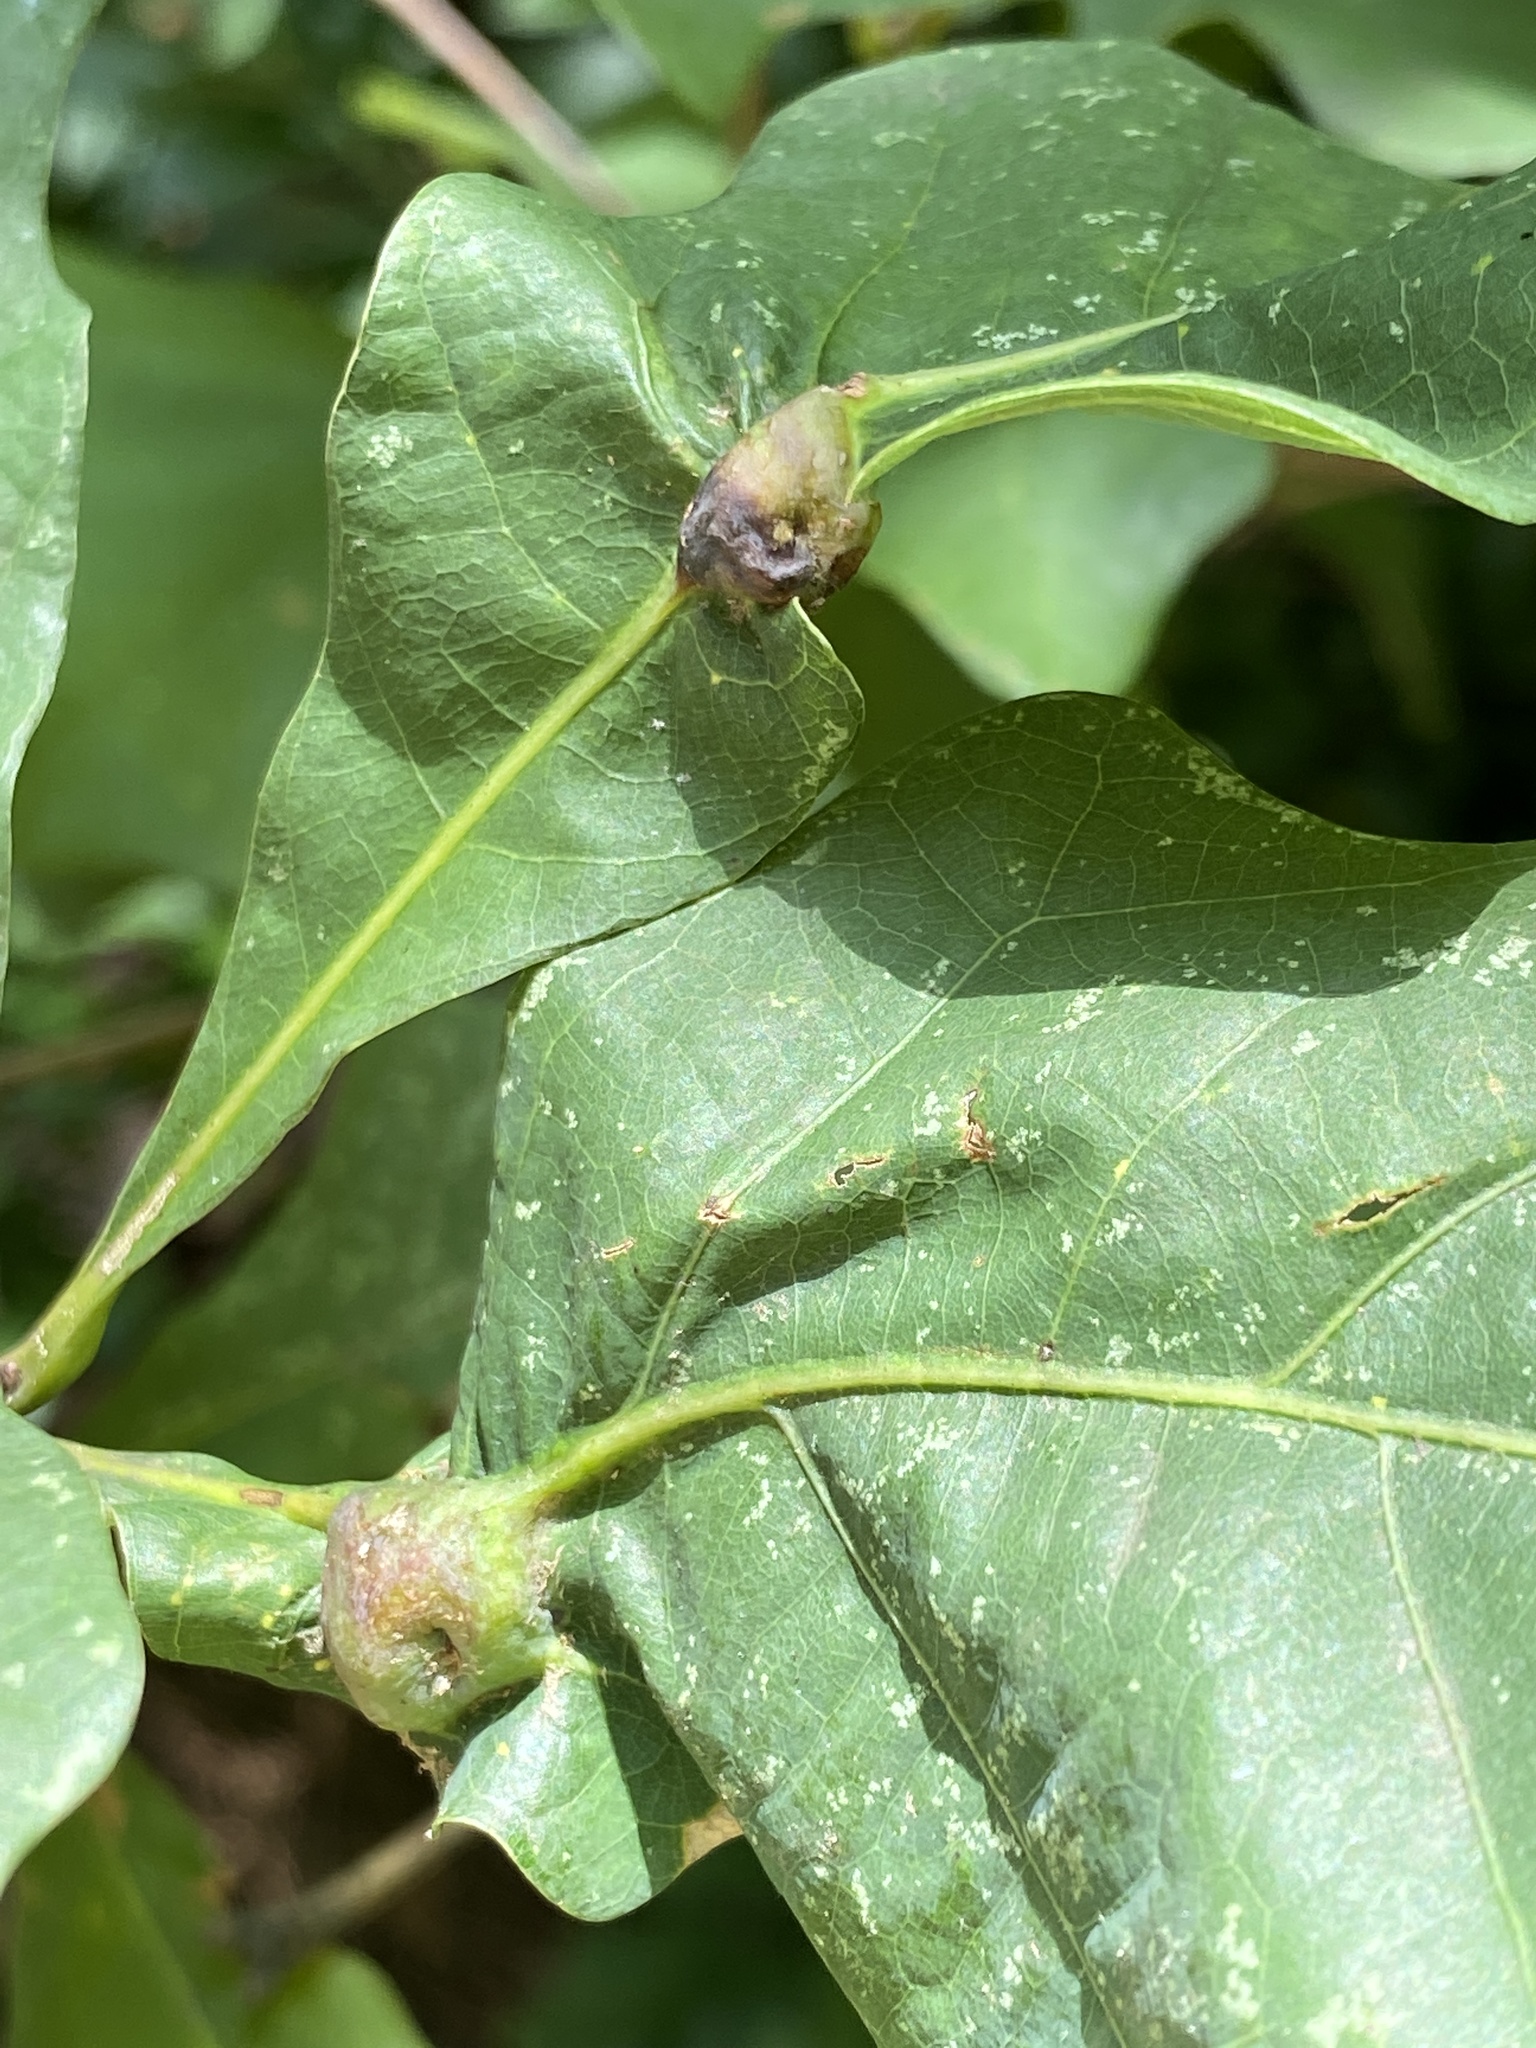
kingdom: Animalia
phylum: Arthropoda
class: Insecta
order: Hymenoptera
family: Cynipidae
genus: Andricus
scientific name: Andricus
